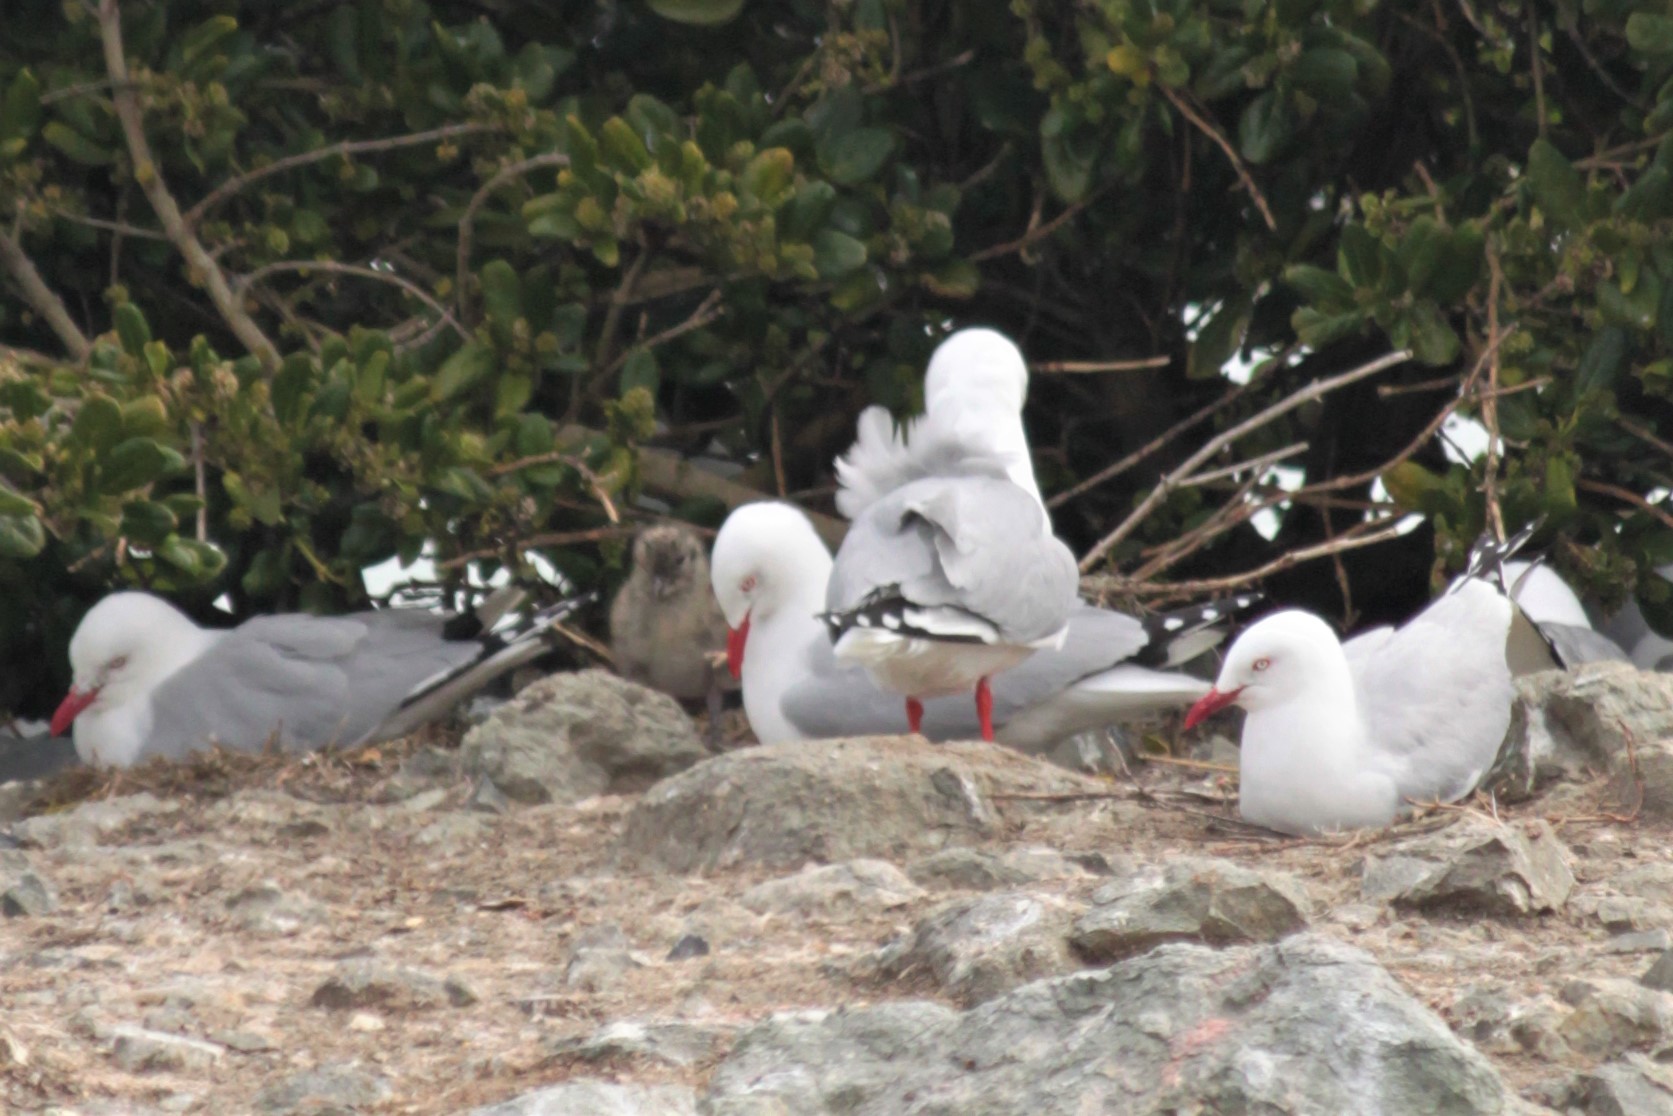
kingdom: Animalia
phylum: Chordata
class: Aves
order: Charadriiformes
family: Laridae
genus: Chroicocephalus
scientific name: Chroicocephalus novaehollandiae
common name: Silver gull
